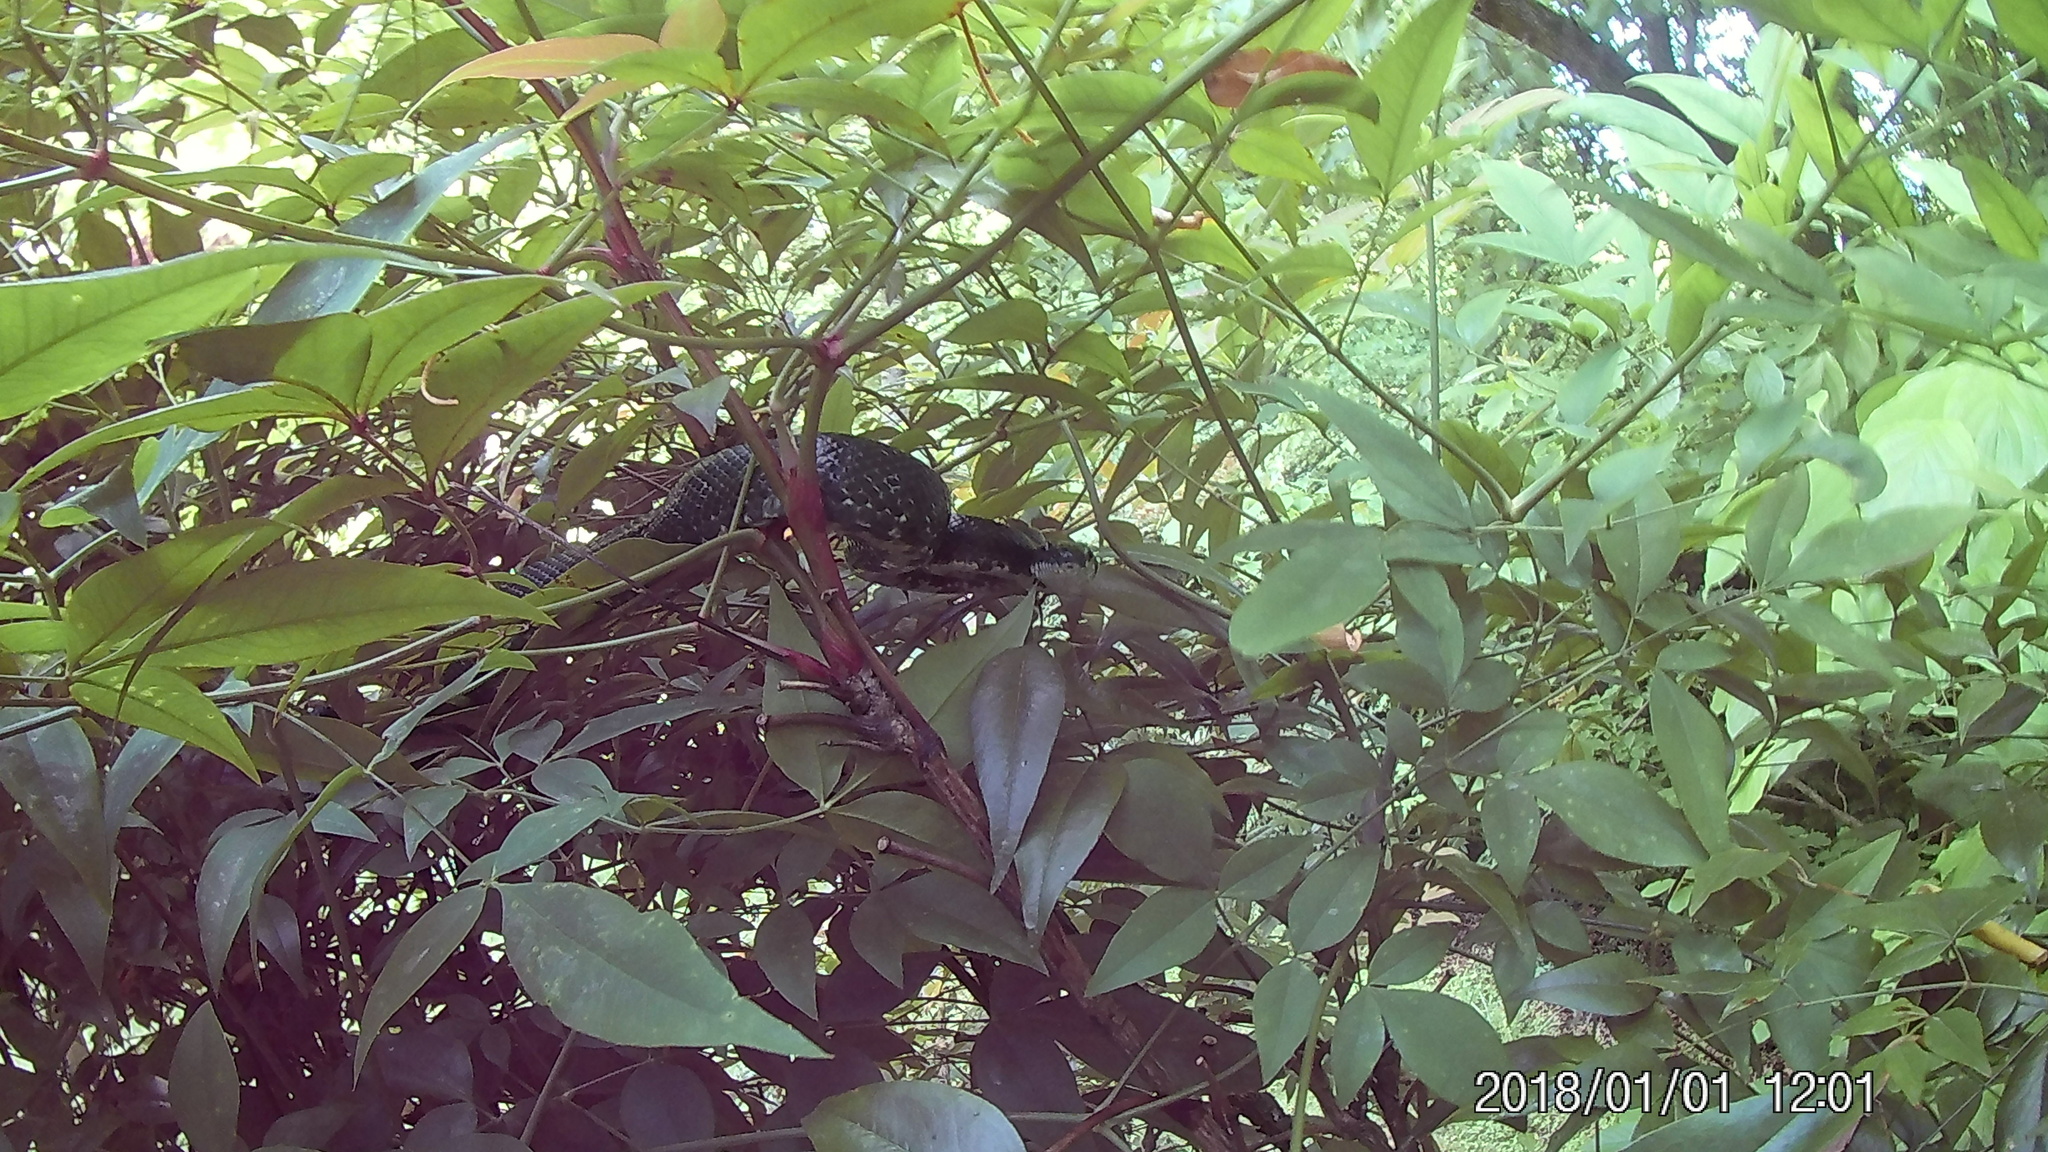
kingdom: Animalia
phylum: Chordata
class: Squamata
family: Colubridae
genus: Pantherophis
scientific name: Pantherophis alleghaniensis
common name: Eastern rat snake
